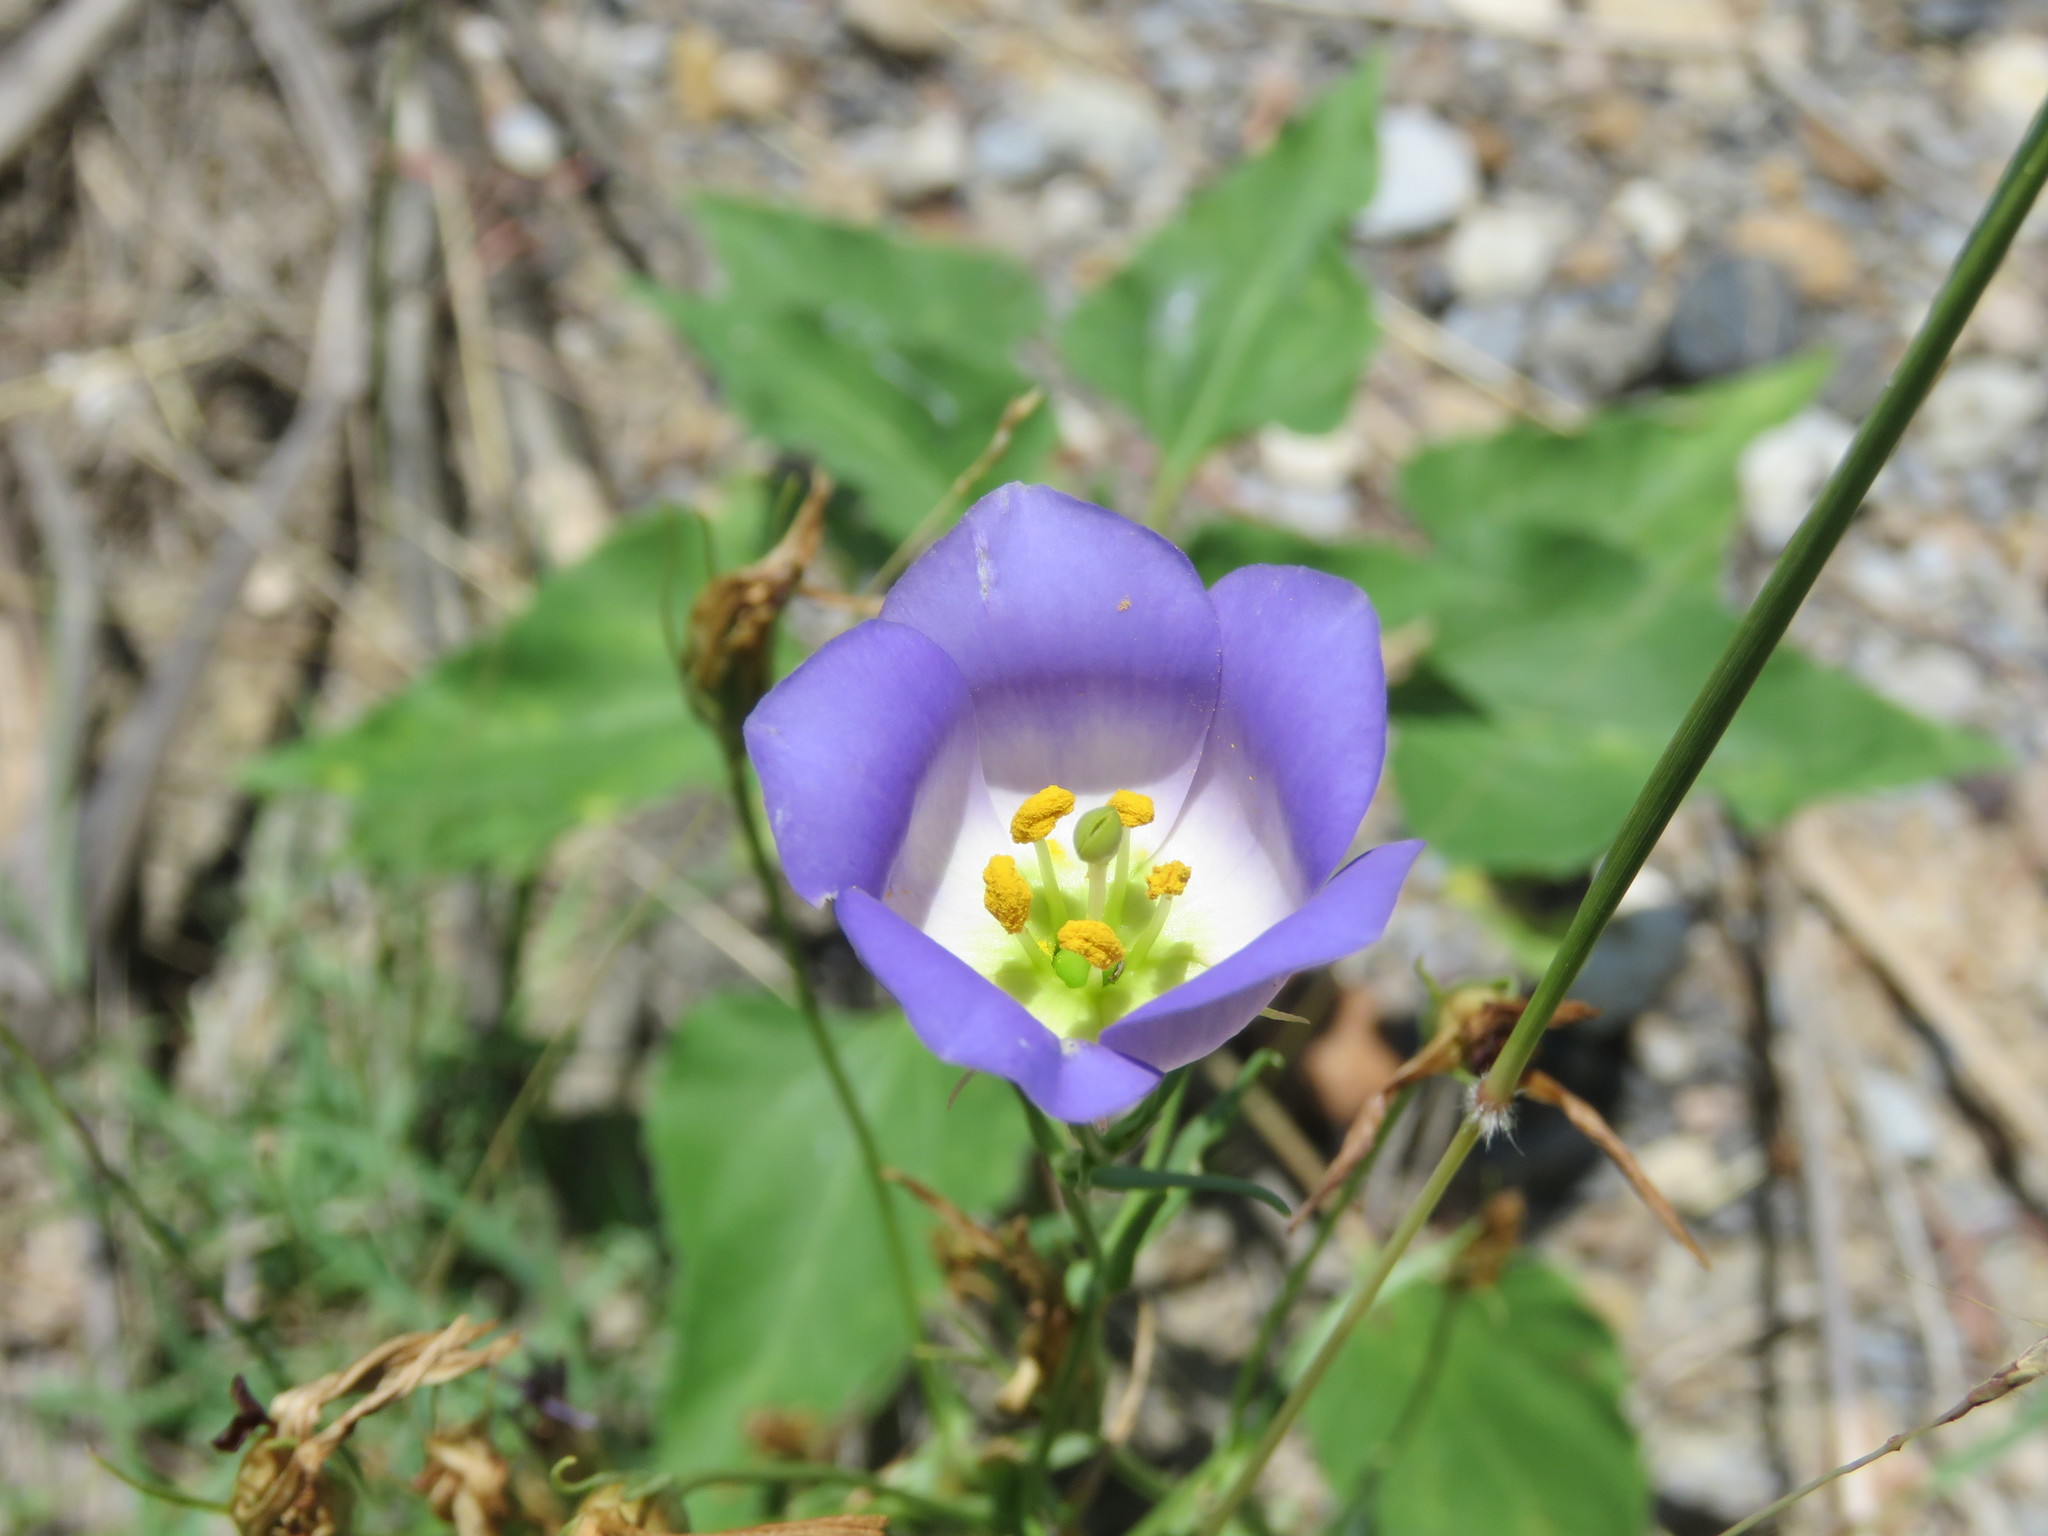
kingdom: Plantae
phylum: Tracheophyta
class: Magnoliopsida
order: Gentianales
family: Gentianaceae
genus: Eustoma
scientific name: Eustoma exaltatum
